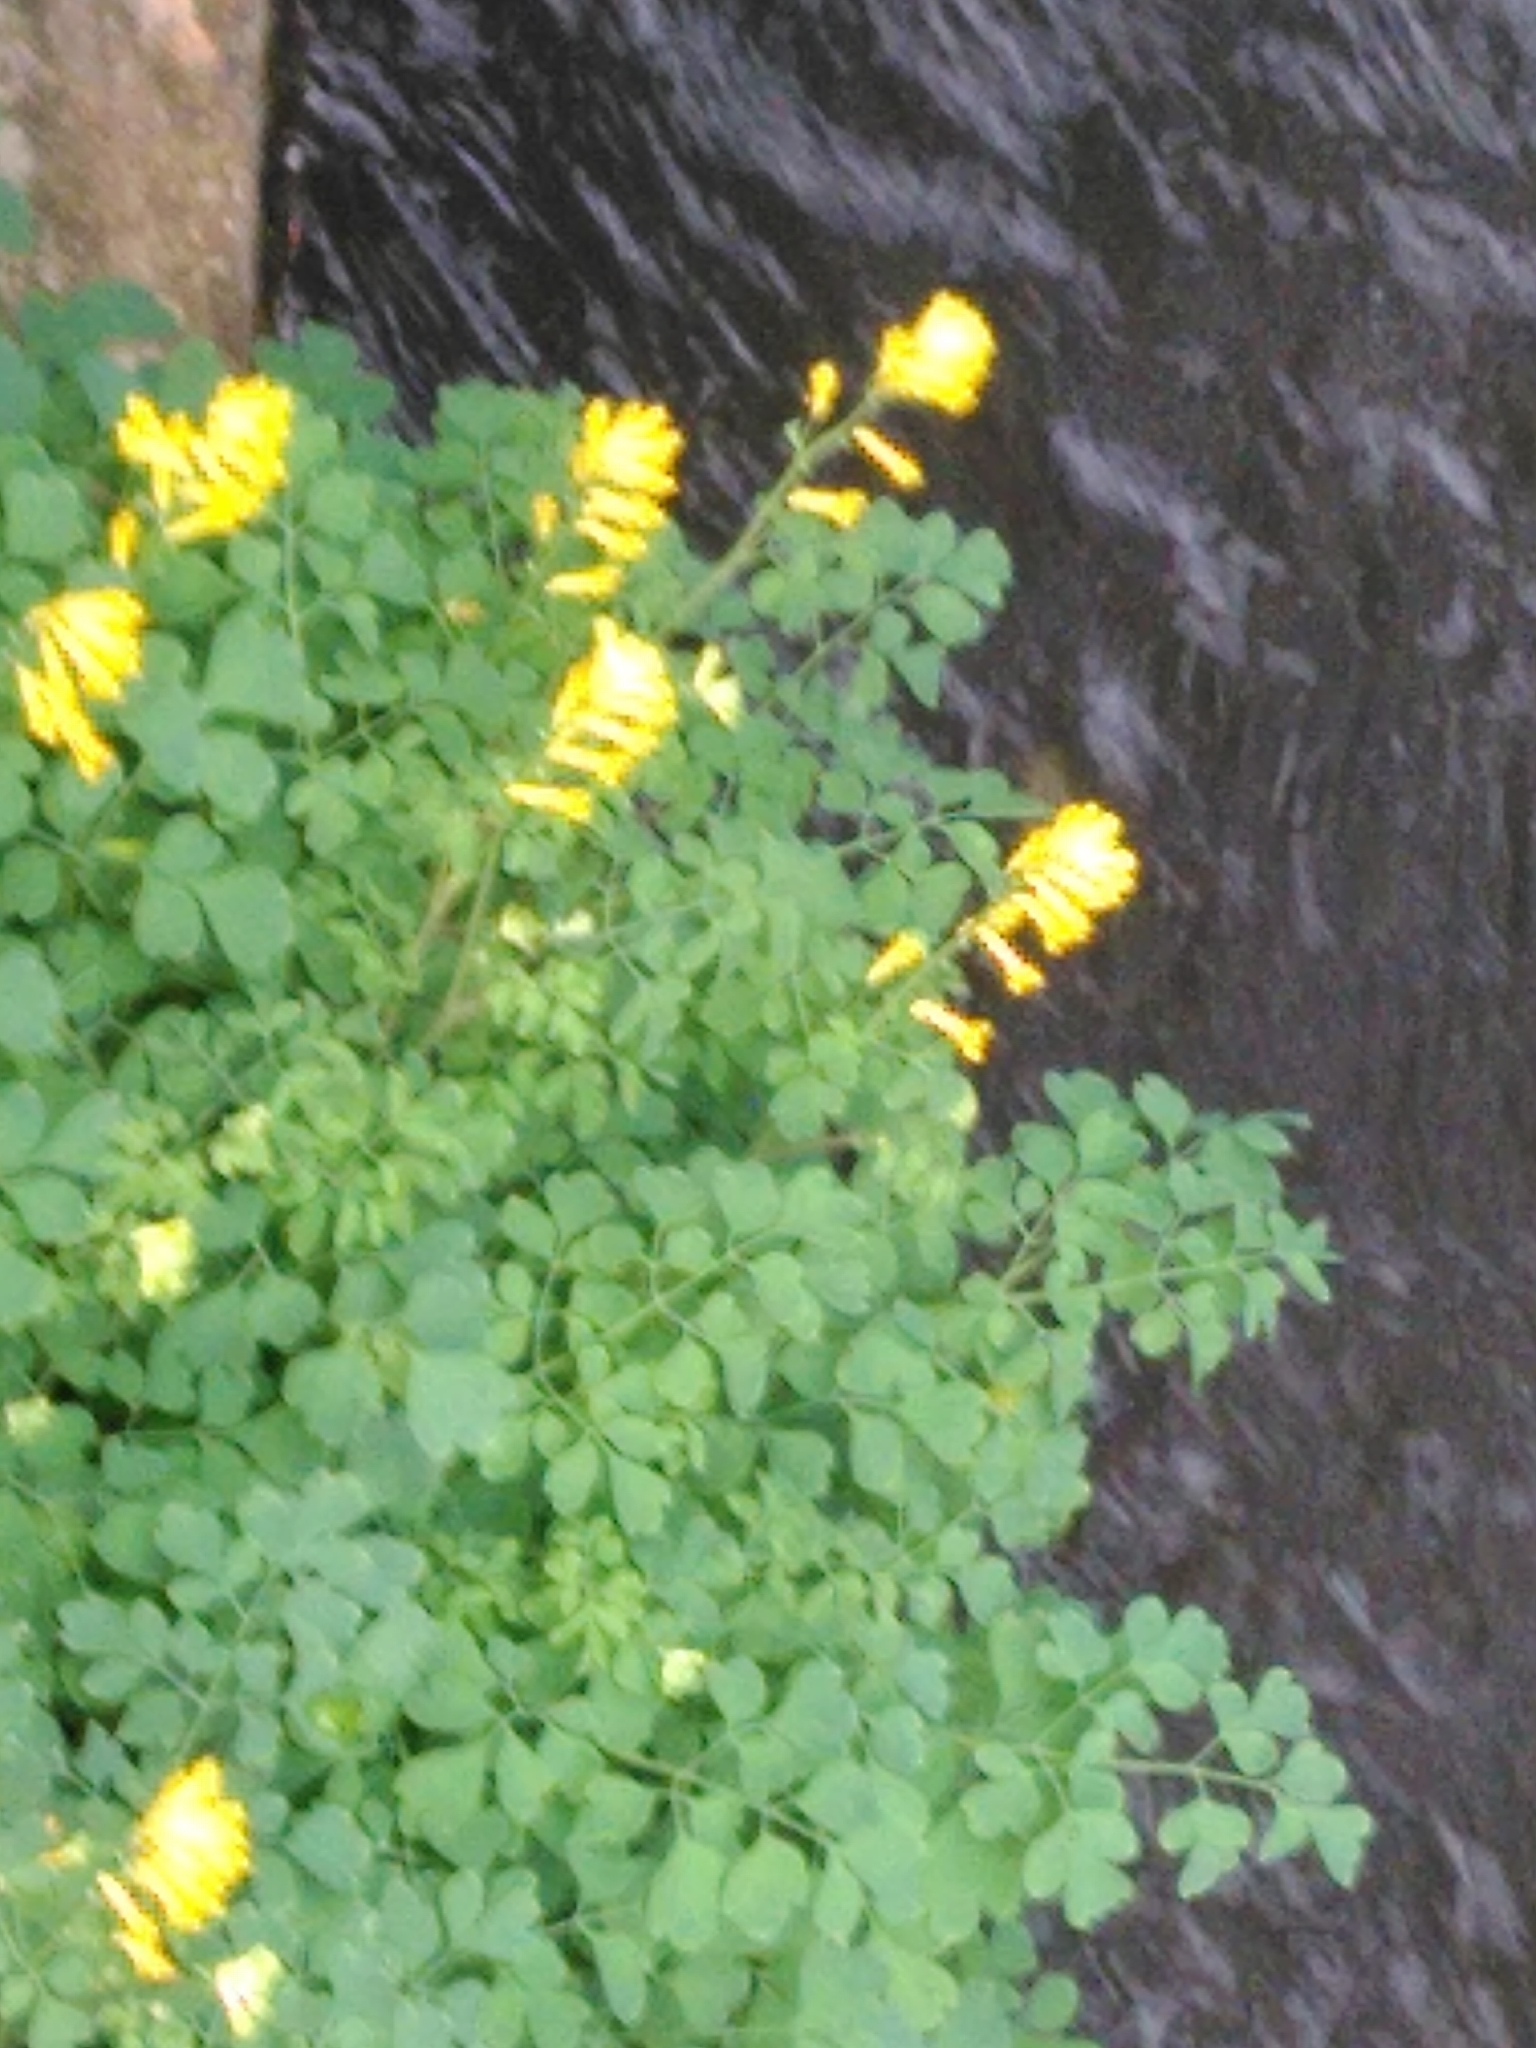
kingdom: Plantae
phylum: Tracheophyta
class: Magnoliopsida
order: Ranunculales
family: Papaveraceae
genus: Pseudofumaria
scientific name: Pseudofumaria lutea
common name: Yellow corydalis
